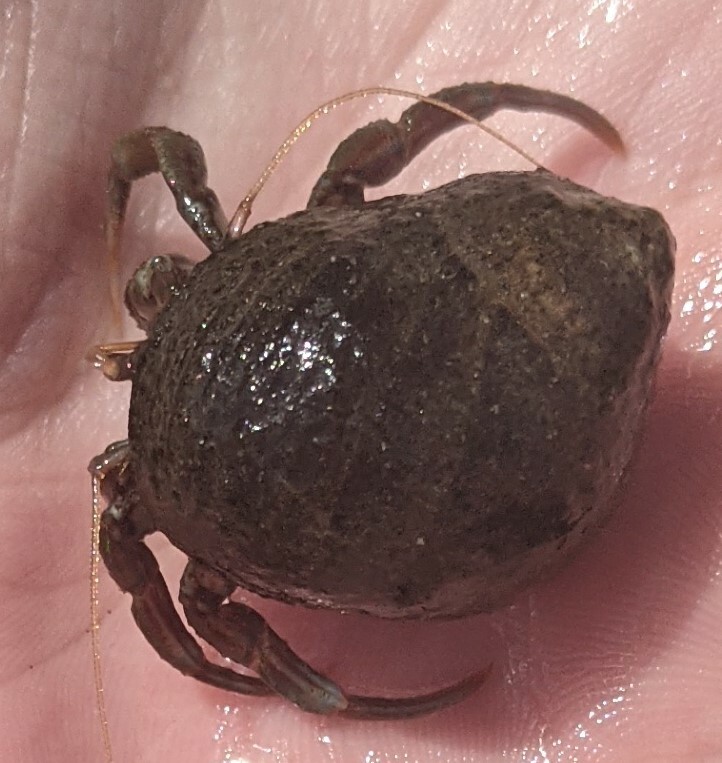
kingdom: Animalia
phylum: Arthropoda
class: Malacostraca
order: Decapoda
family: Paguridae
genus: Pagurus
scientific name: Pagurus bernhardus
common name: Hermit crab
